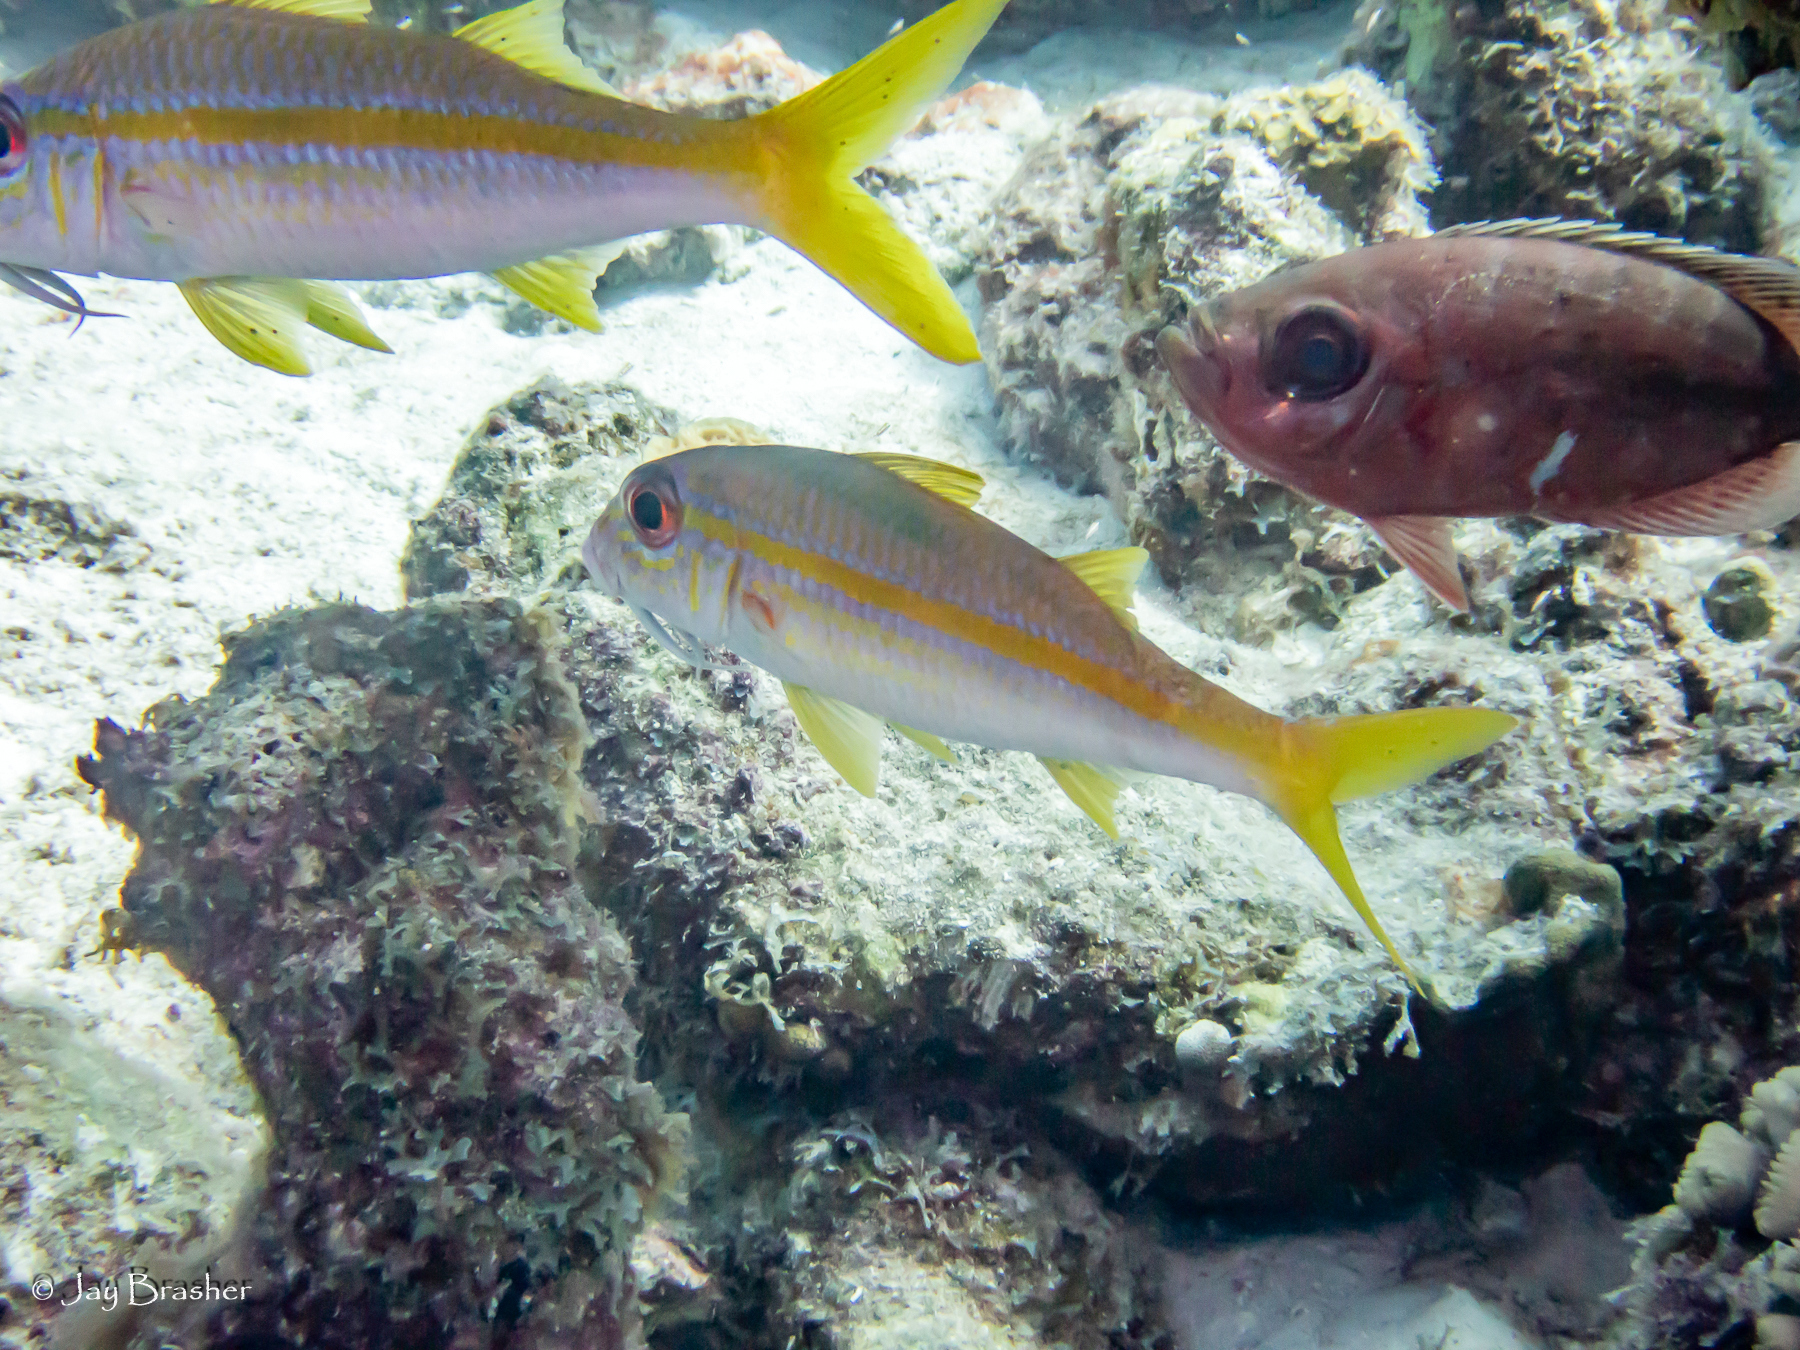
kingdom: Animalia
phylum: Chordata
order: Perciformes
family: Priacanthidae
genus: Heteropriacanthus
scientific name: Heteropriacanthus cruentatus
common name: Glasseye
